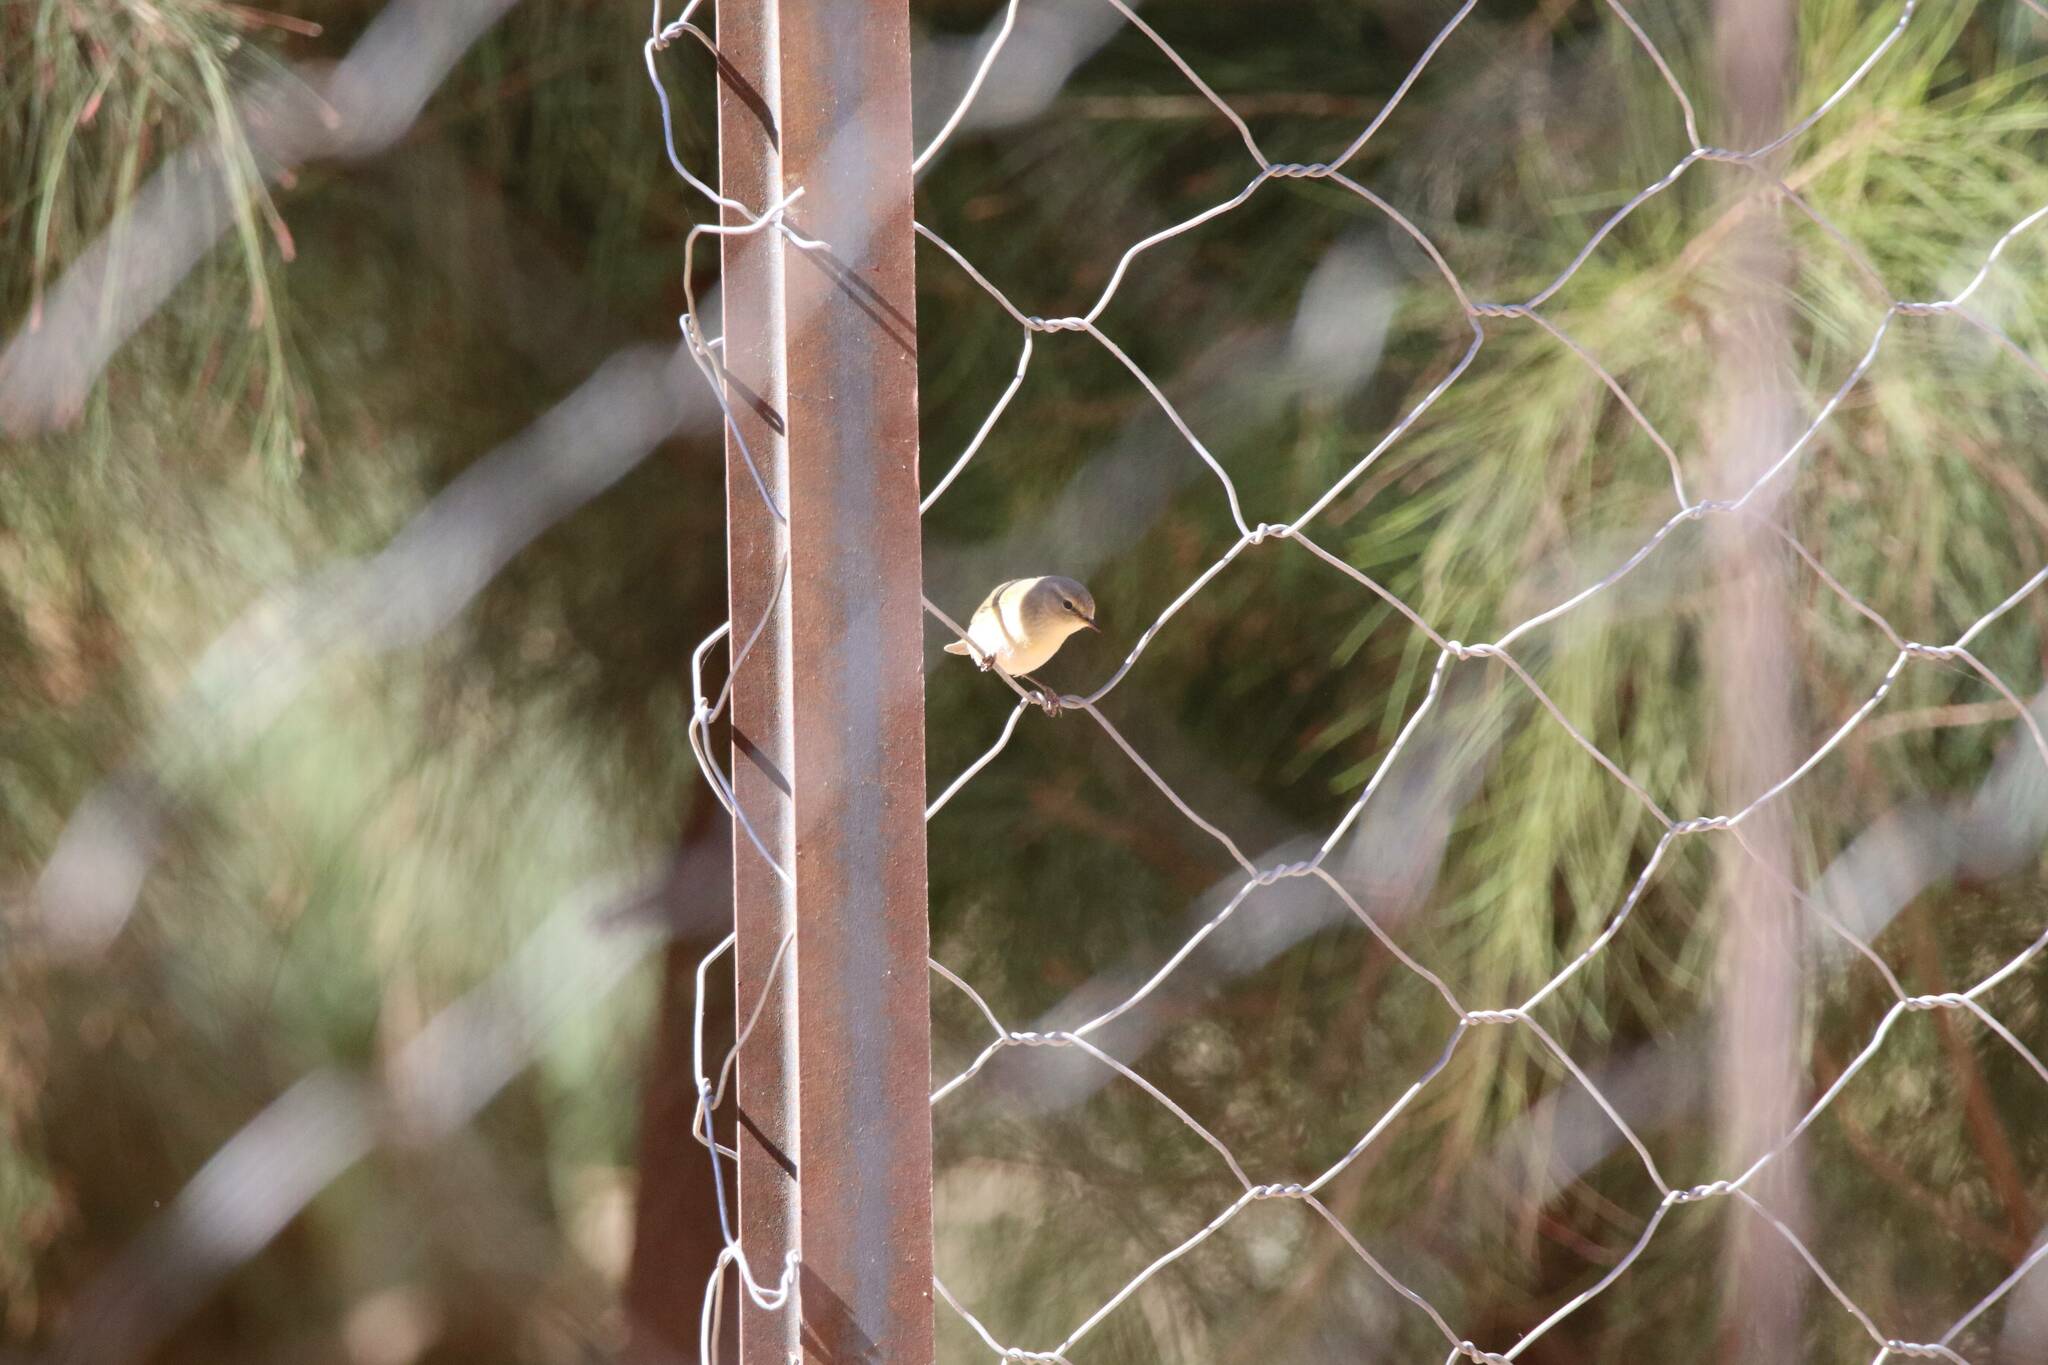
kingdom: Animalia
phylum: Chordata
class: Aves
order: Passeriformes
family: Phylloscopidae
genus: Phylloscopus
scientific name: Phylloscopus collybita
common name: Common chiffchaff
